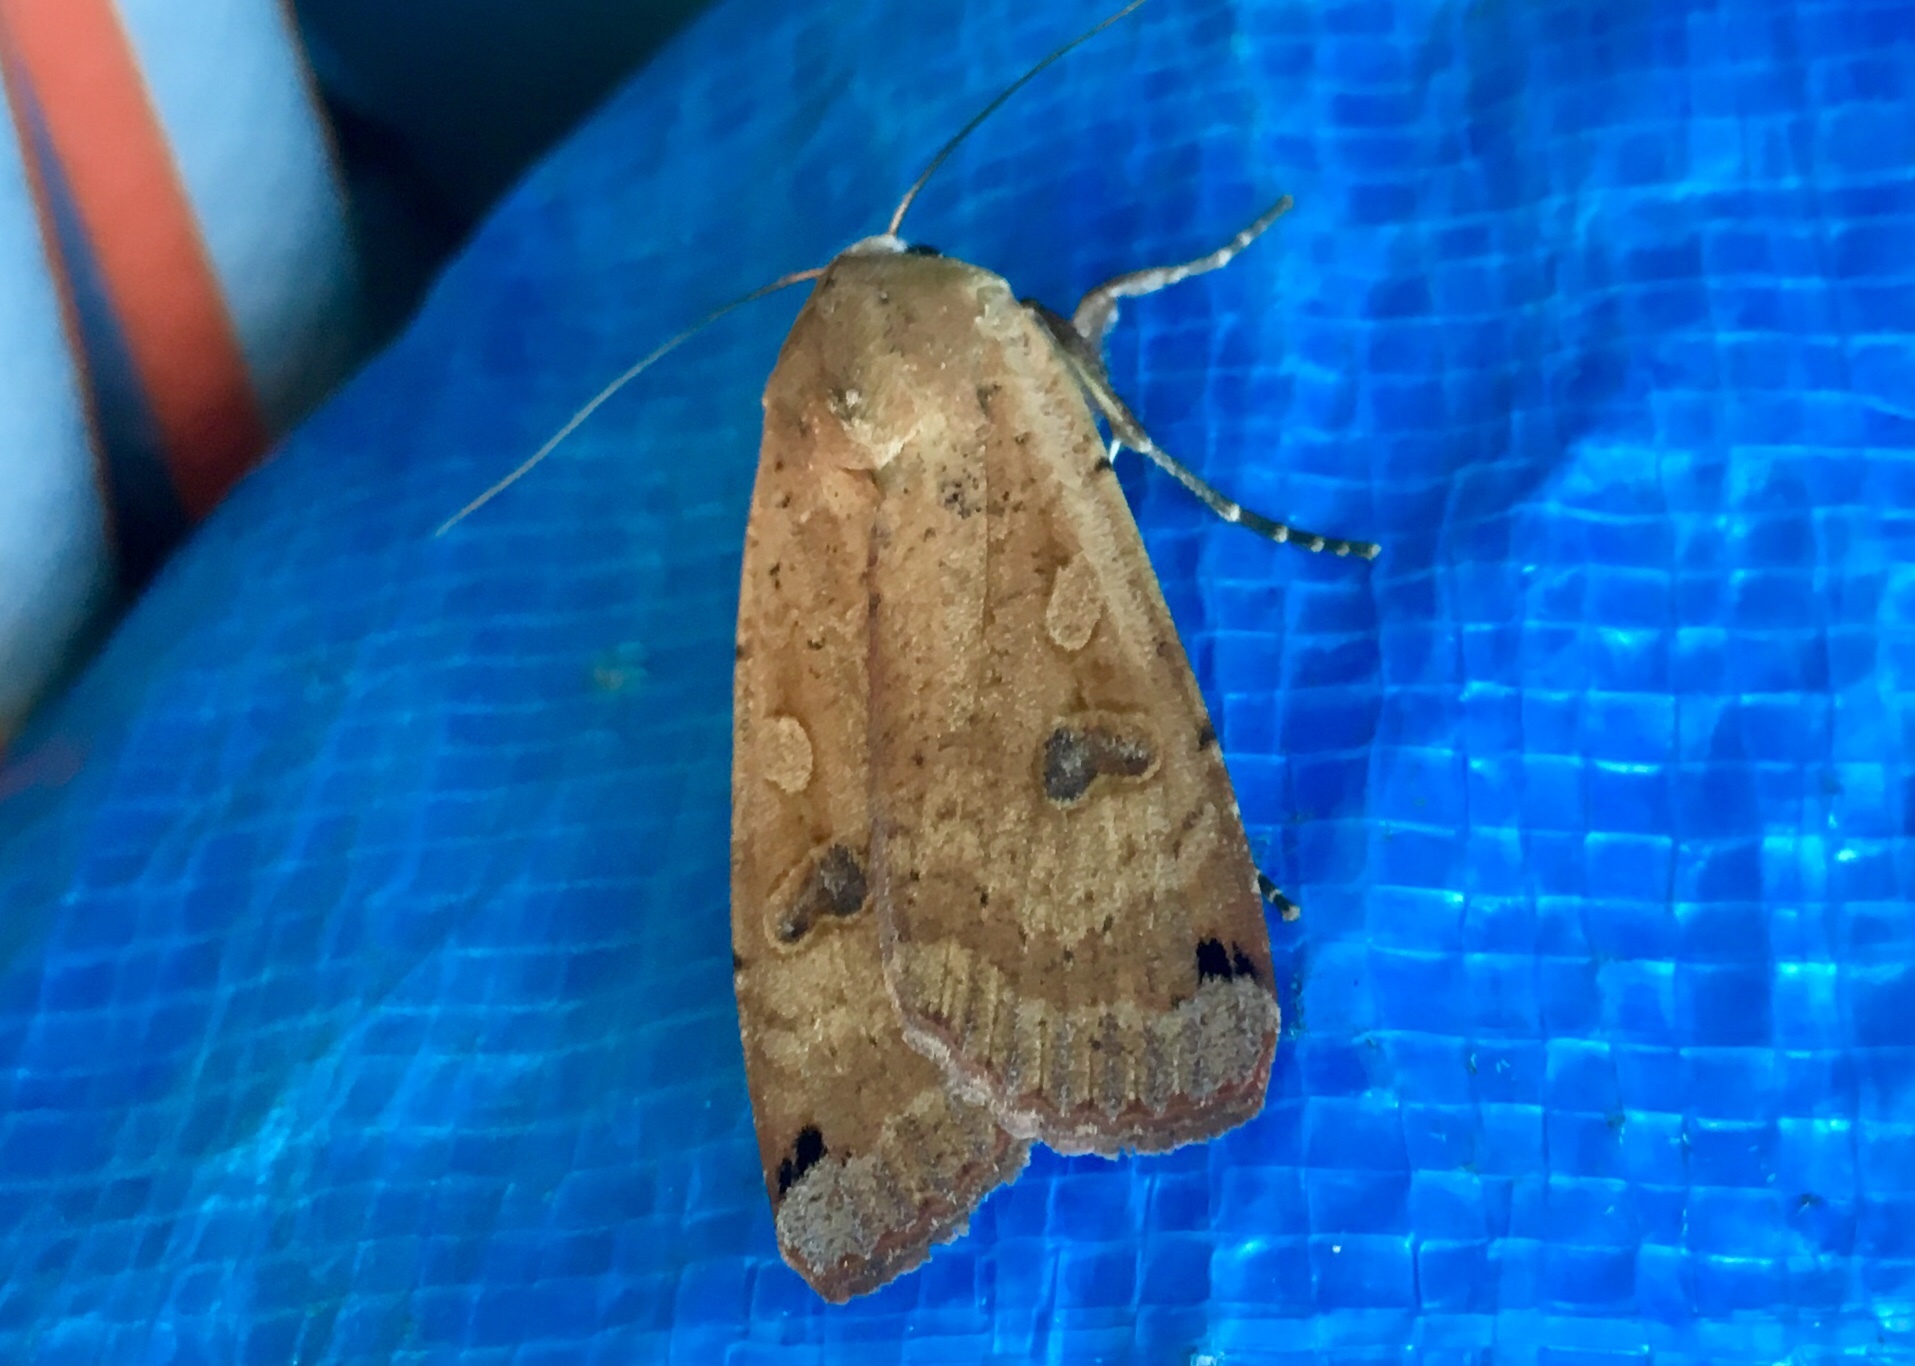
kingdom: Animalia
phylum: Arthropoda
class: Insecta
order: Lepidoptera
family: Noctuidae
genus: Noctua
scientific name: Noctua pronuba
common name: Large yellow underwing
